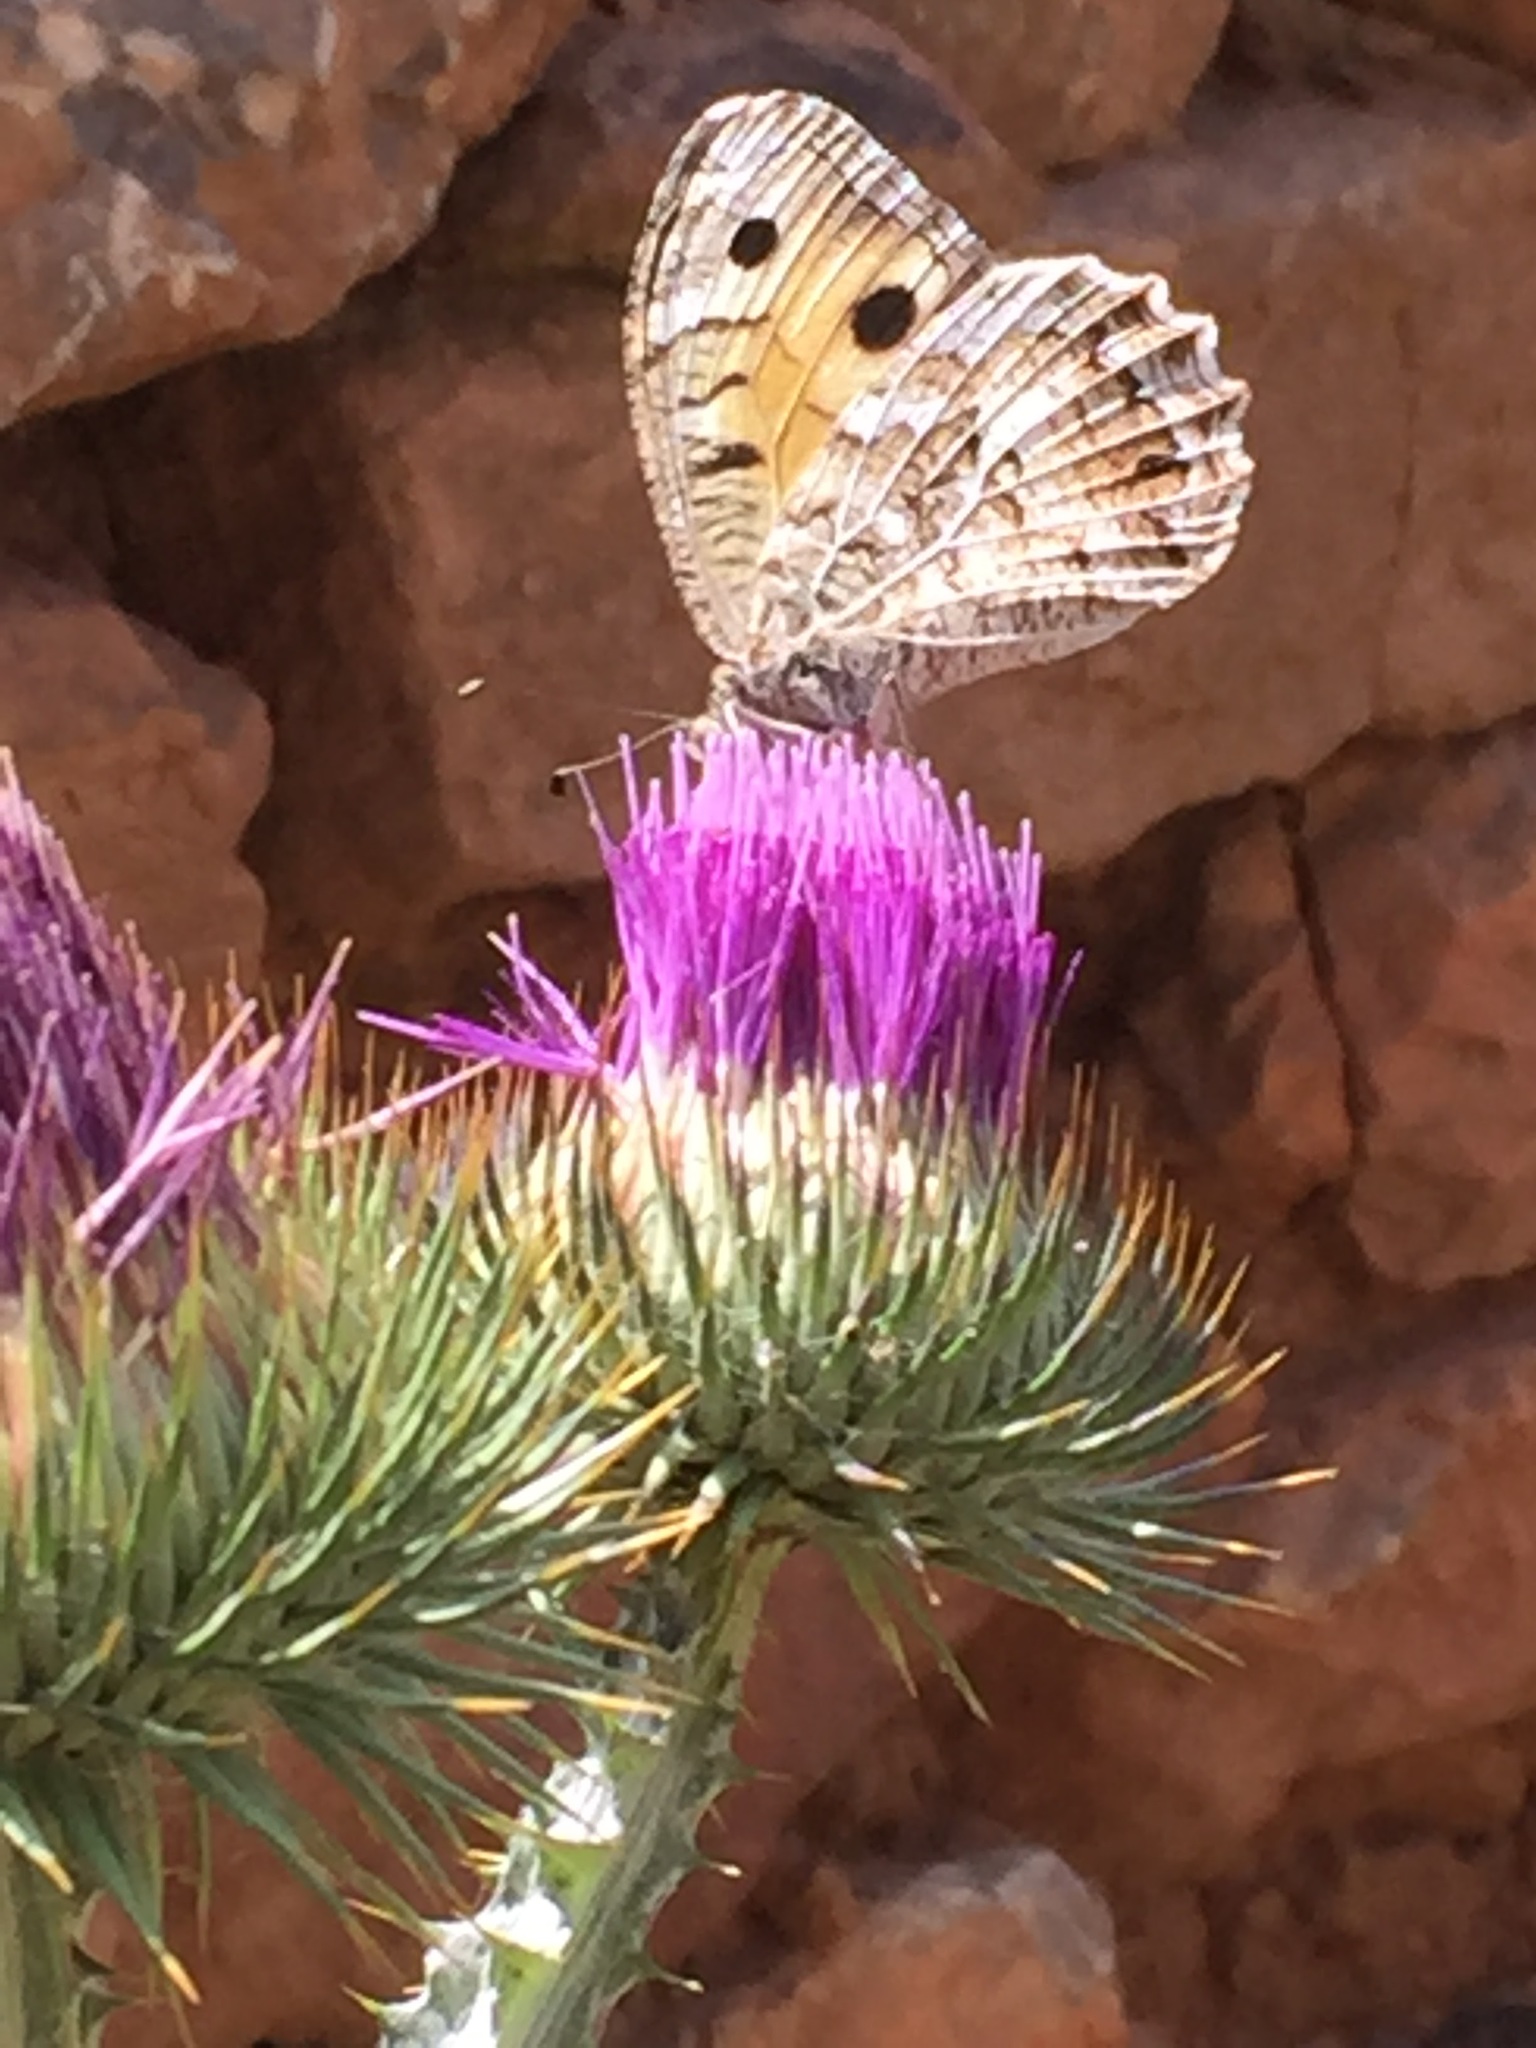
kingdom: Animalia
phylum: Arthropoda
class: Insecta
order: Lepidoptera
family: Nymphalidae
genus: Satyrus
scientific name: Satyrus Chazara persephone
